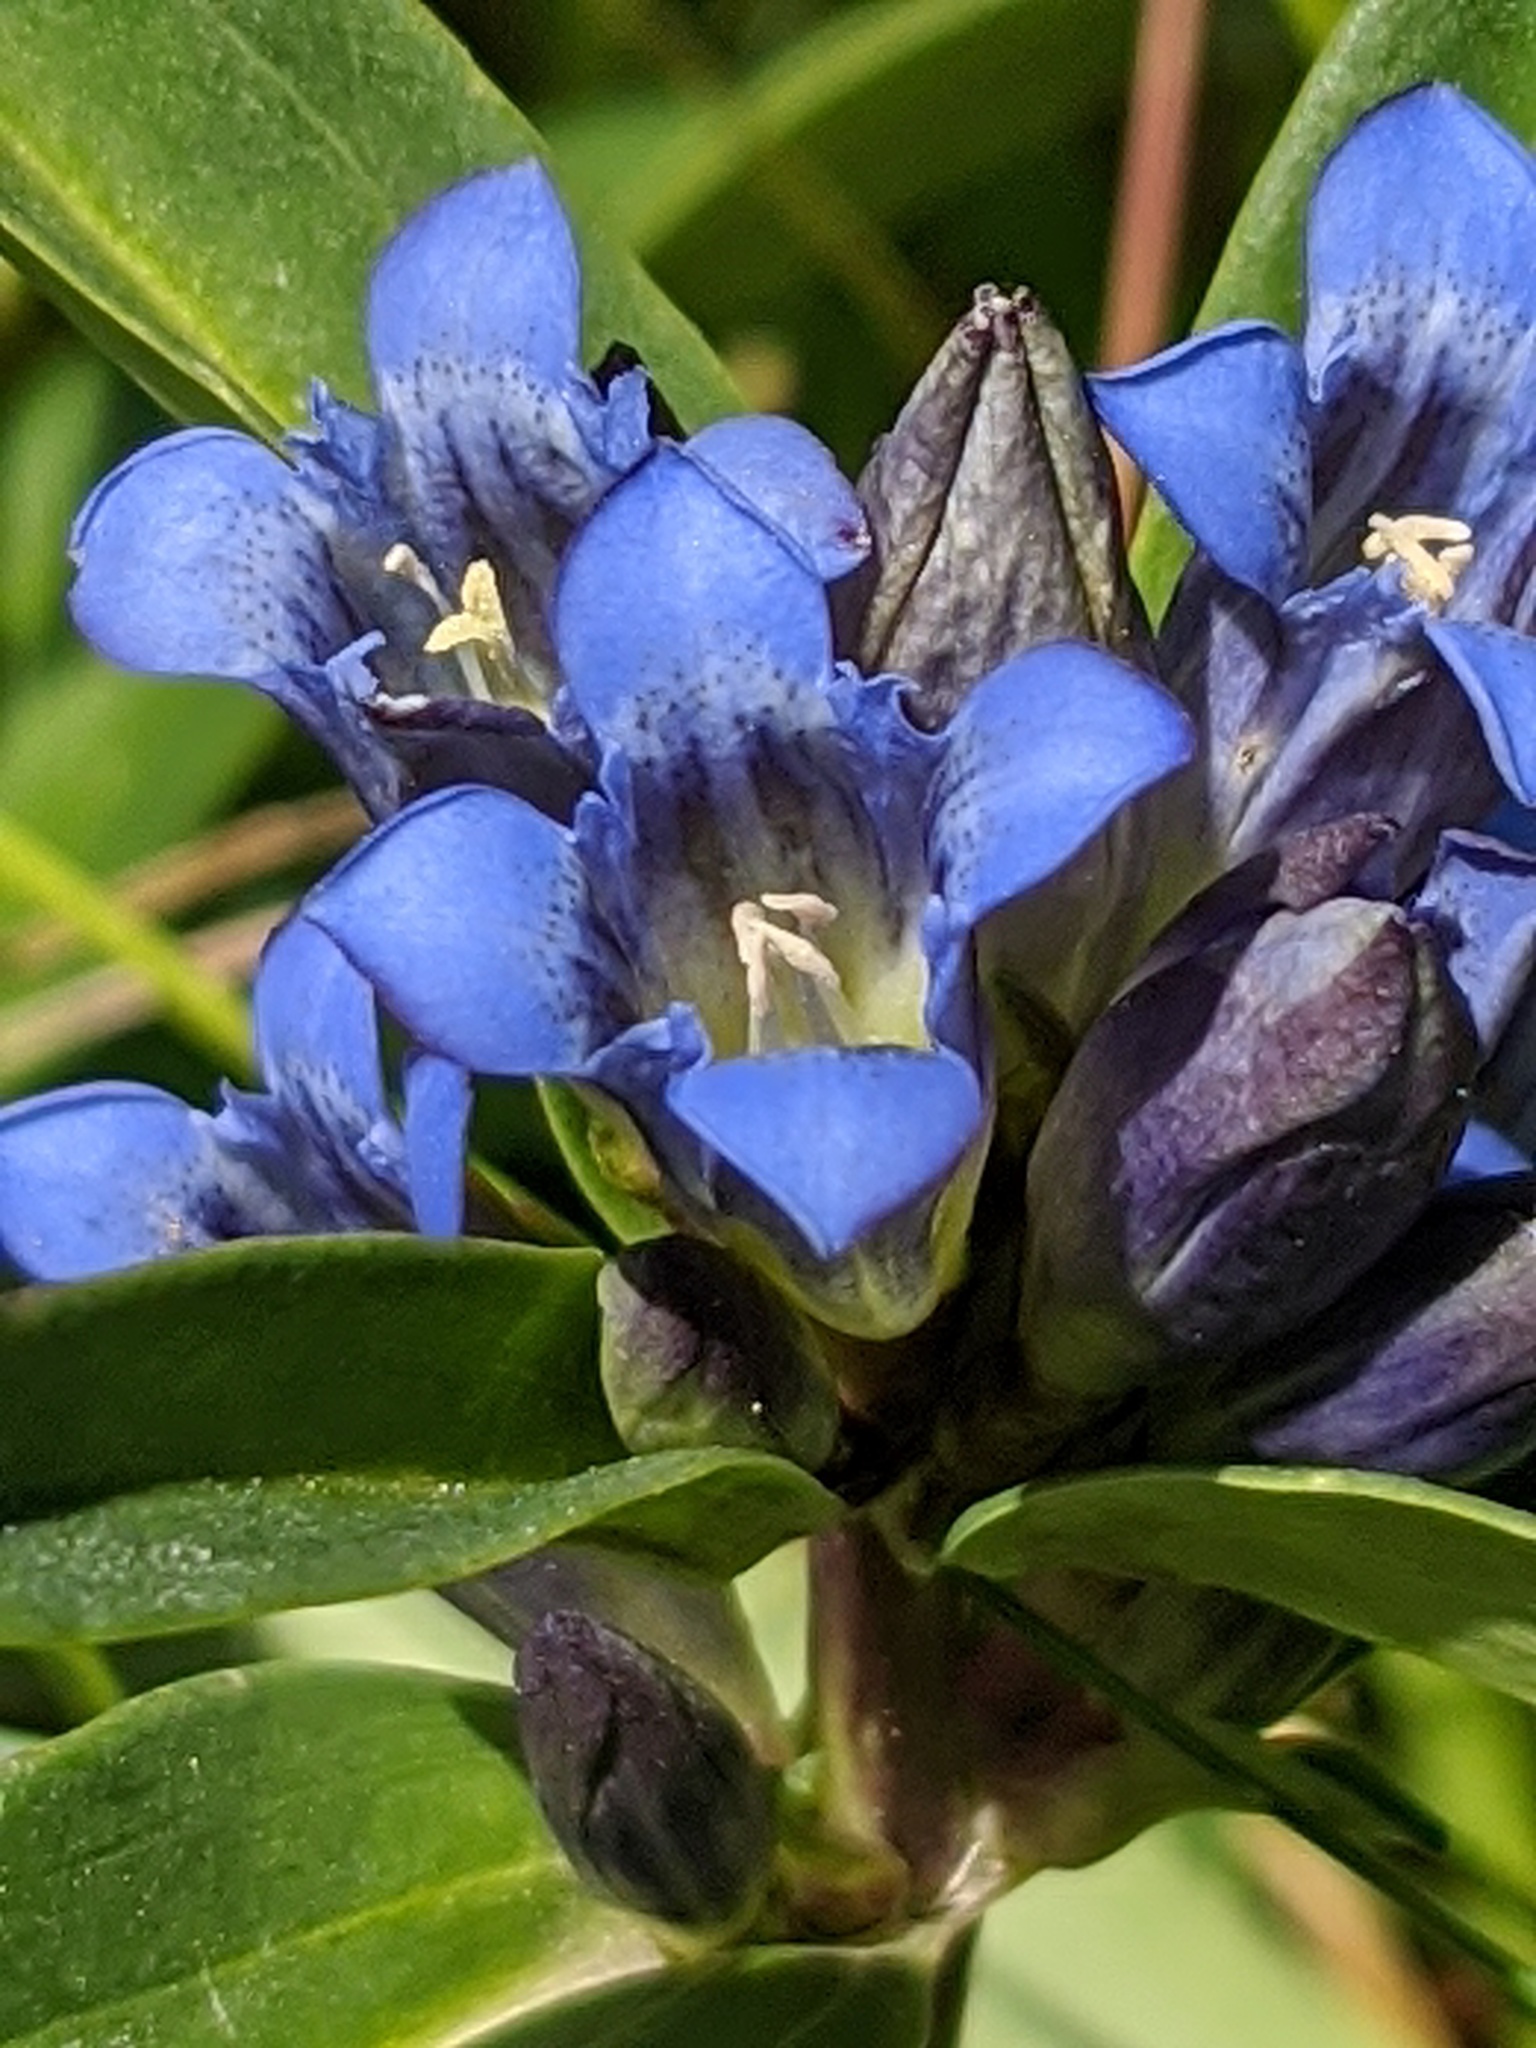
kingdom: Plantae
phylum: Tracheophyta
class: Magnoliopsida
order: Gentianales
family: Gentianaceae
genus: Gentiana
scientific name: Gentiana cruciata
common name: Cross gentian
